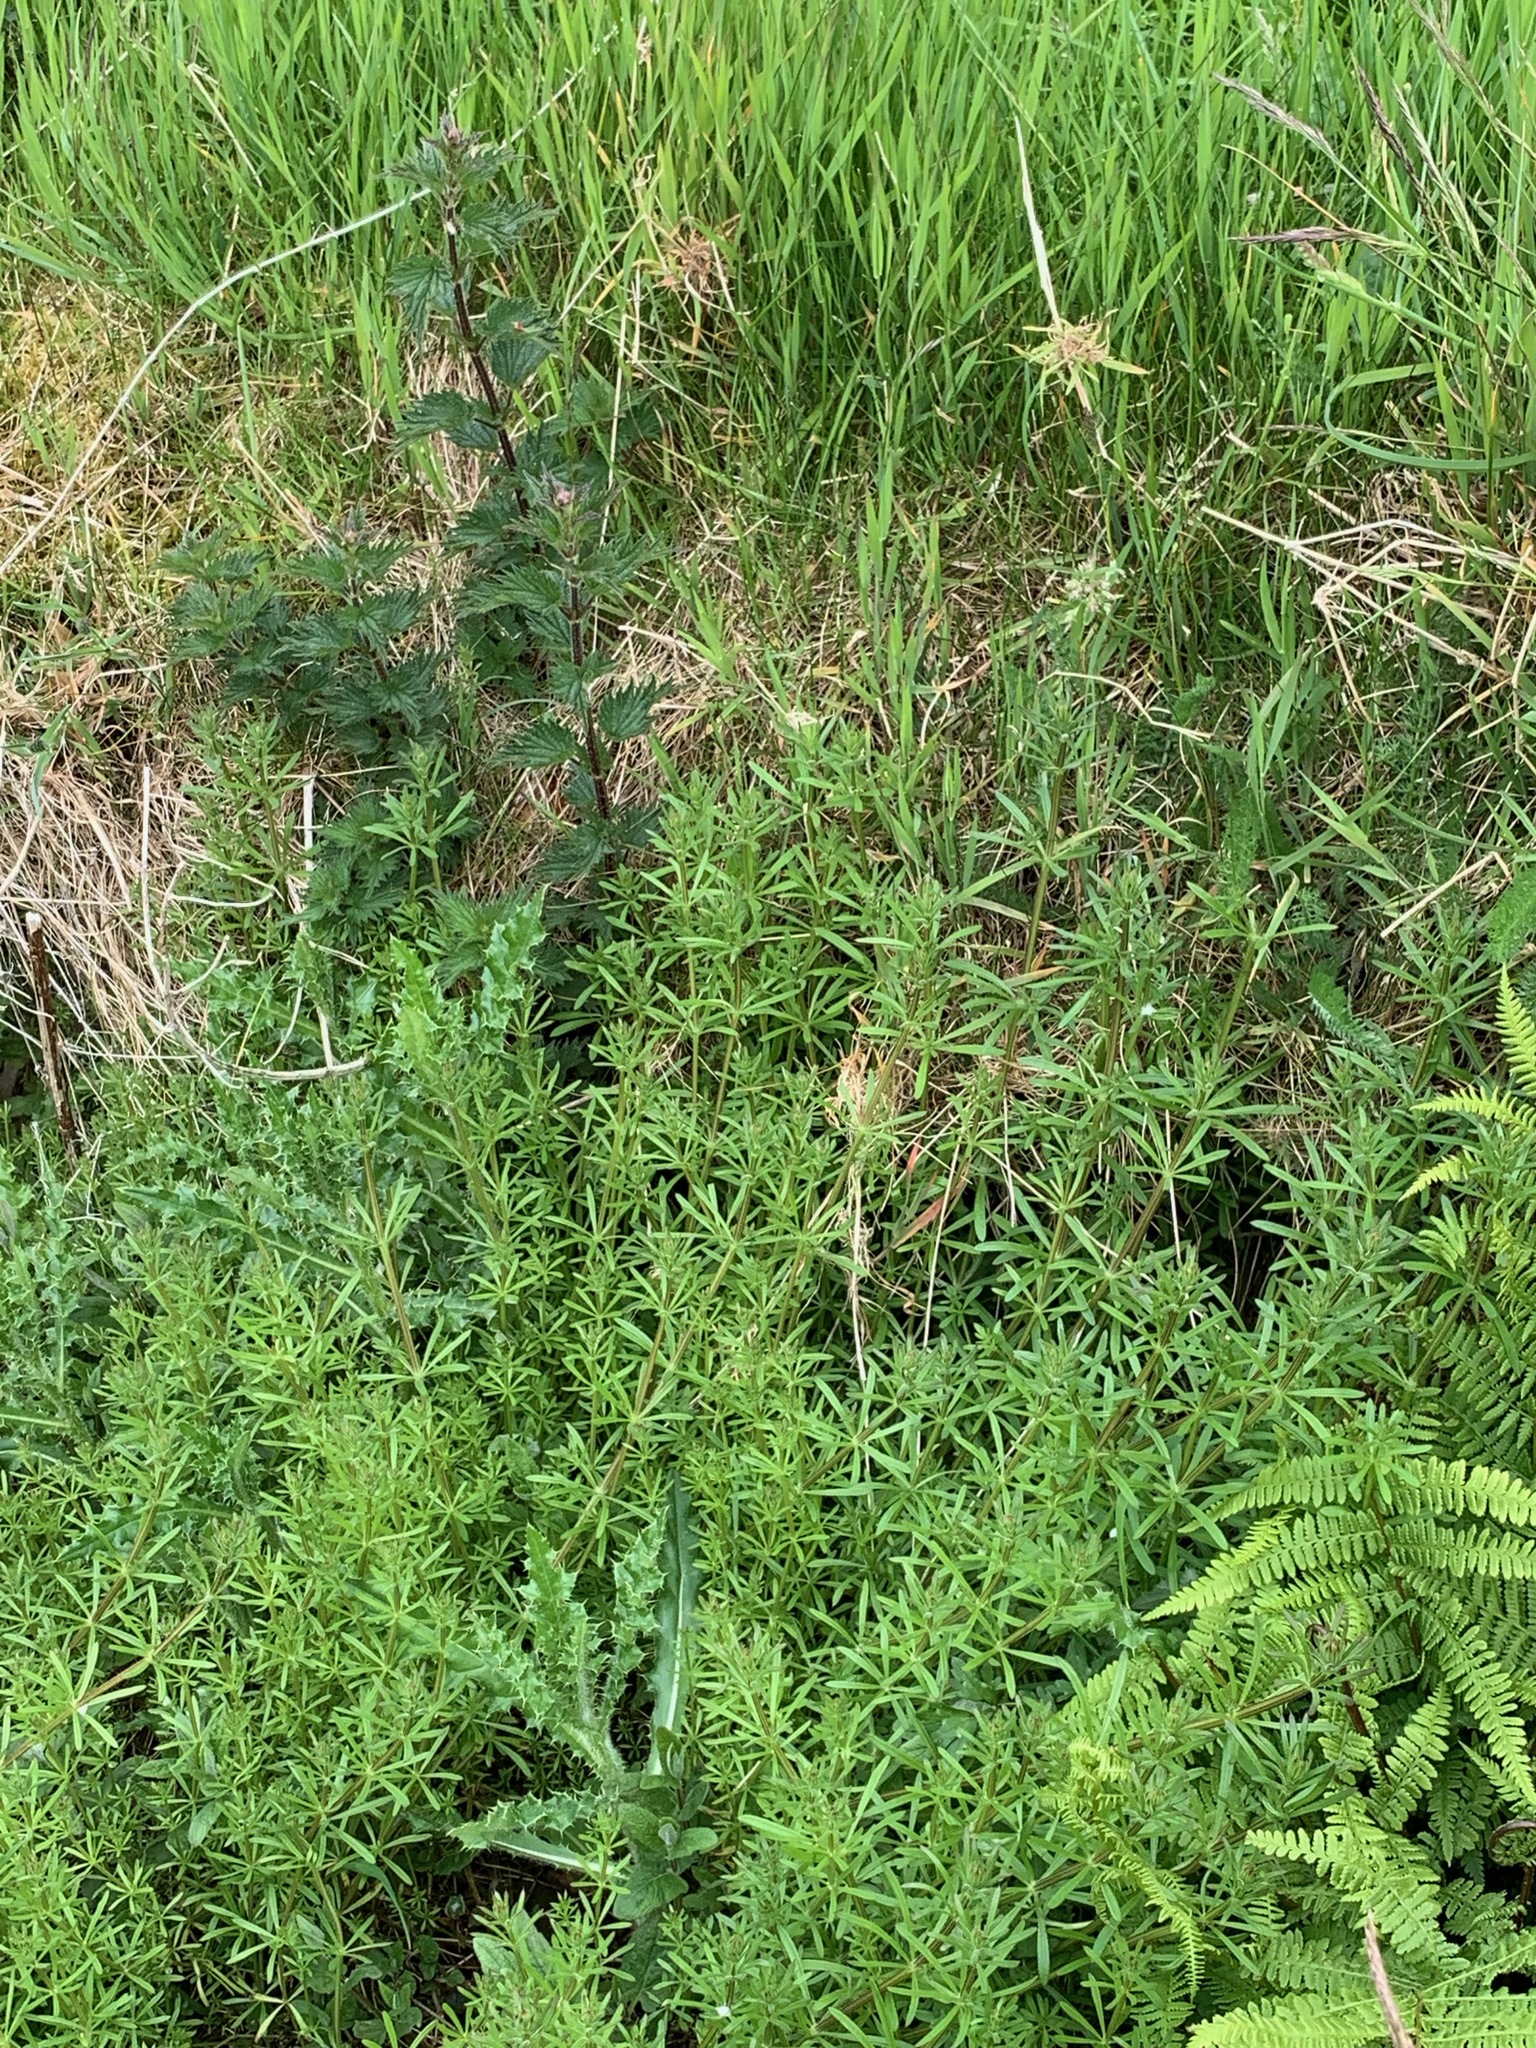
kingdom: Plantae
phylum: Tracheophyta
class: Magnoliopsida
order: Gentianales
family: Rubiaceae
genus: Galium
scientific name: Galium aparine
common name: Cleavers
